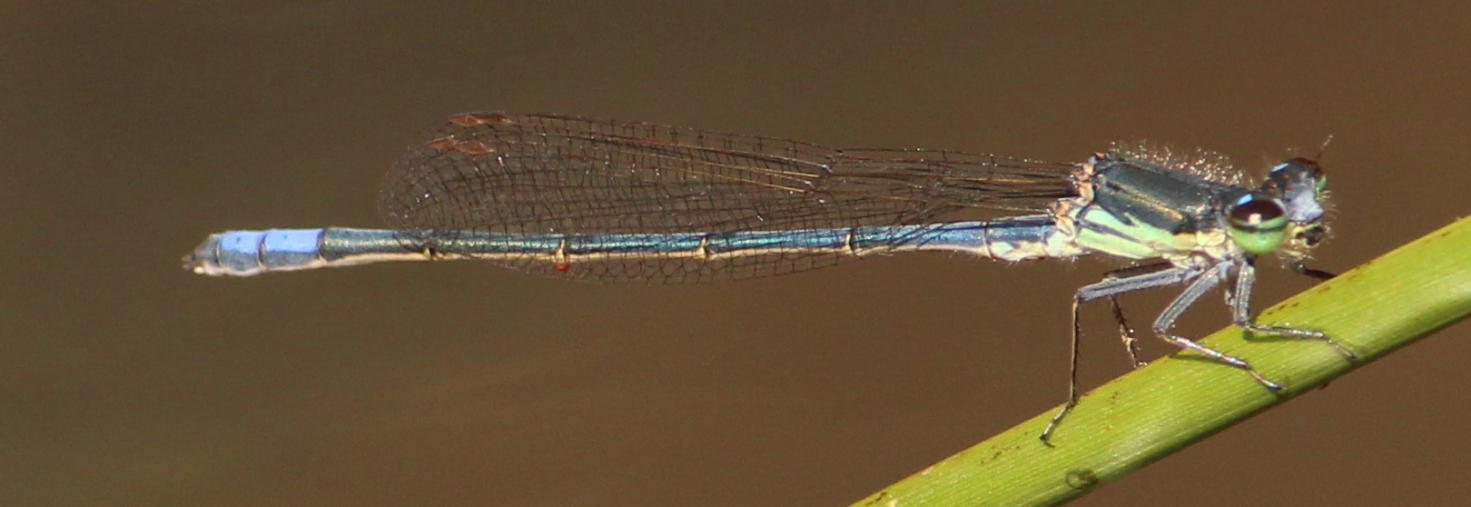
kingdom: Animalia
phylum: Arthropoda
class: Insecta
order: Odonata
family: Coenagrionidae
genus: Pseudagrion
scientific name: Pseudagrion draconis
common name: Mountain sprite
